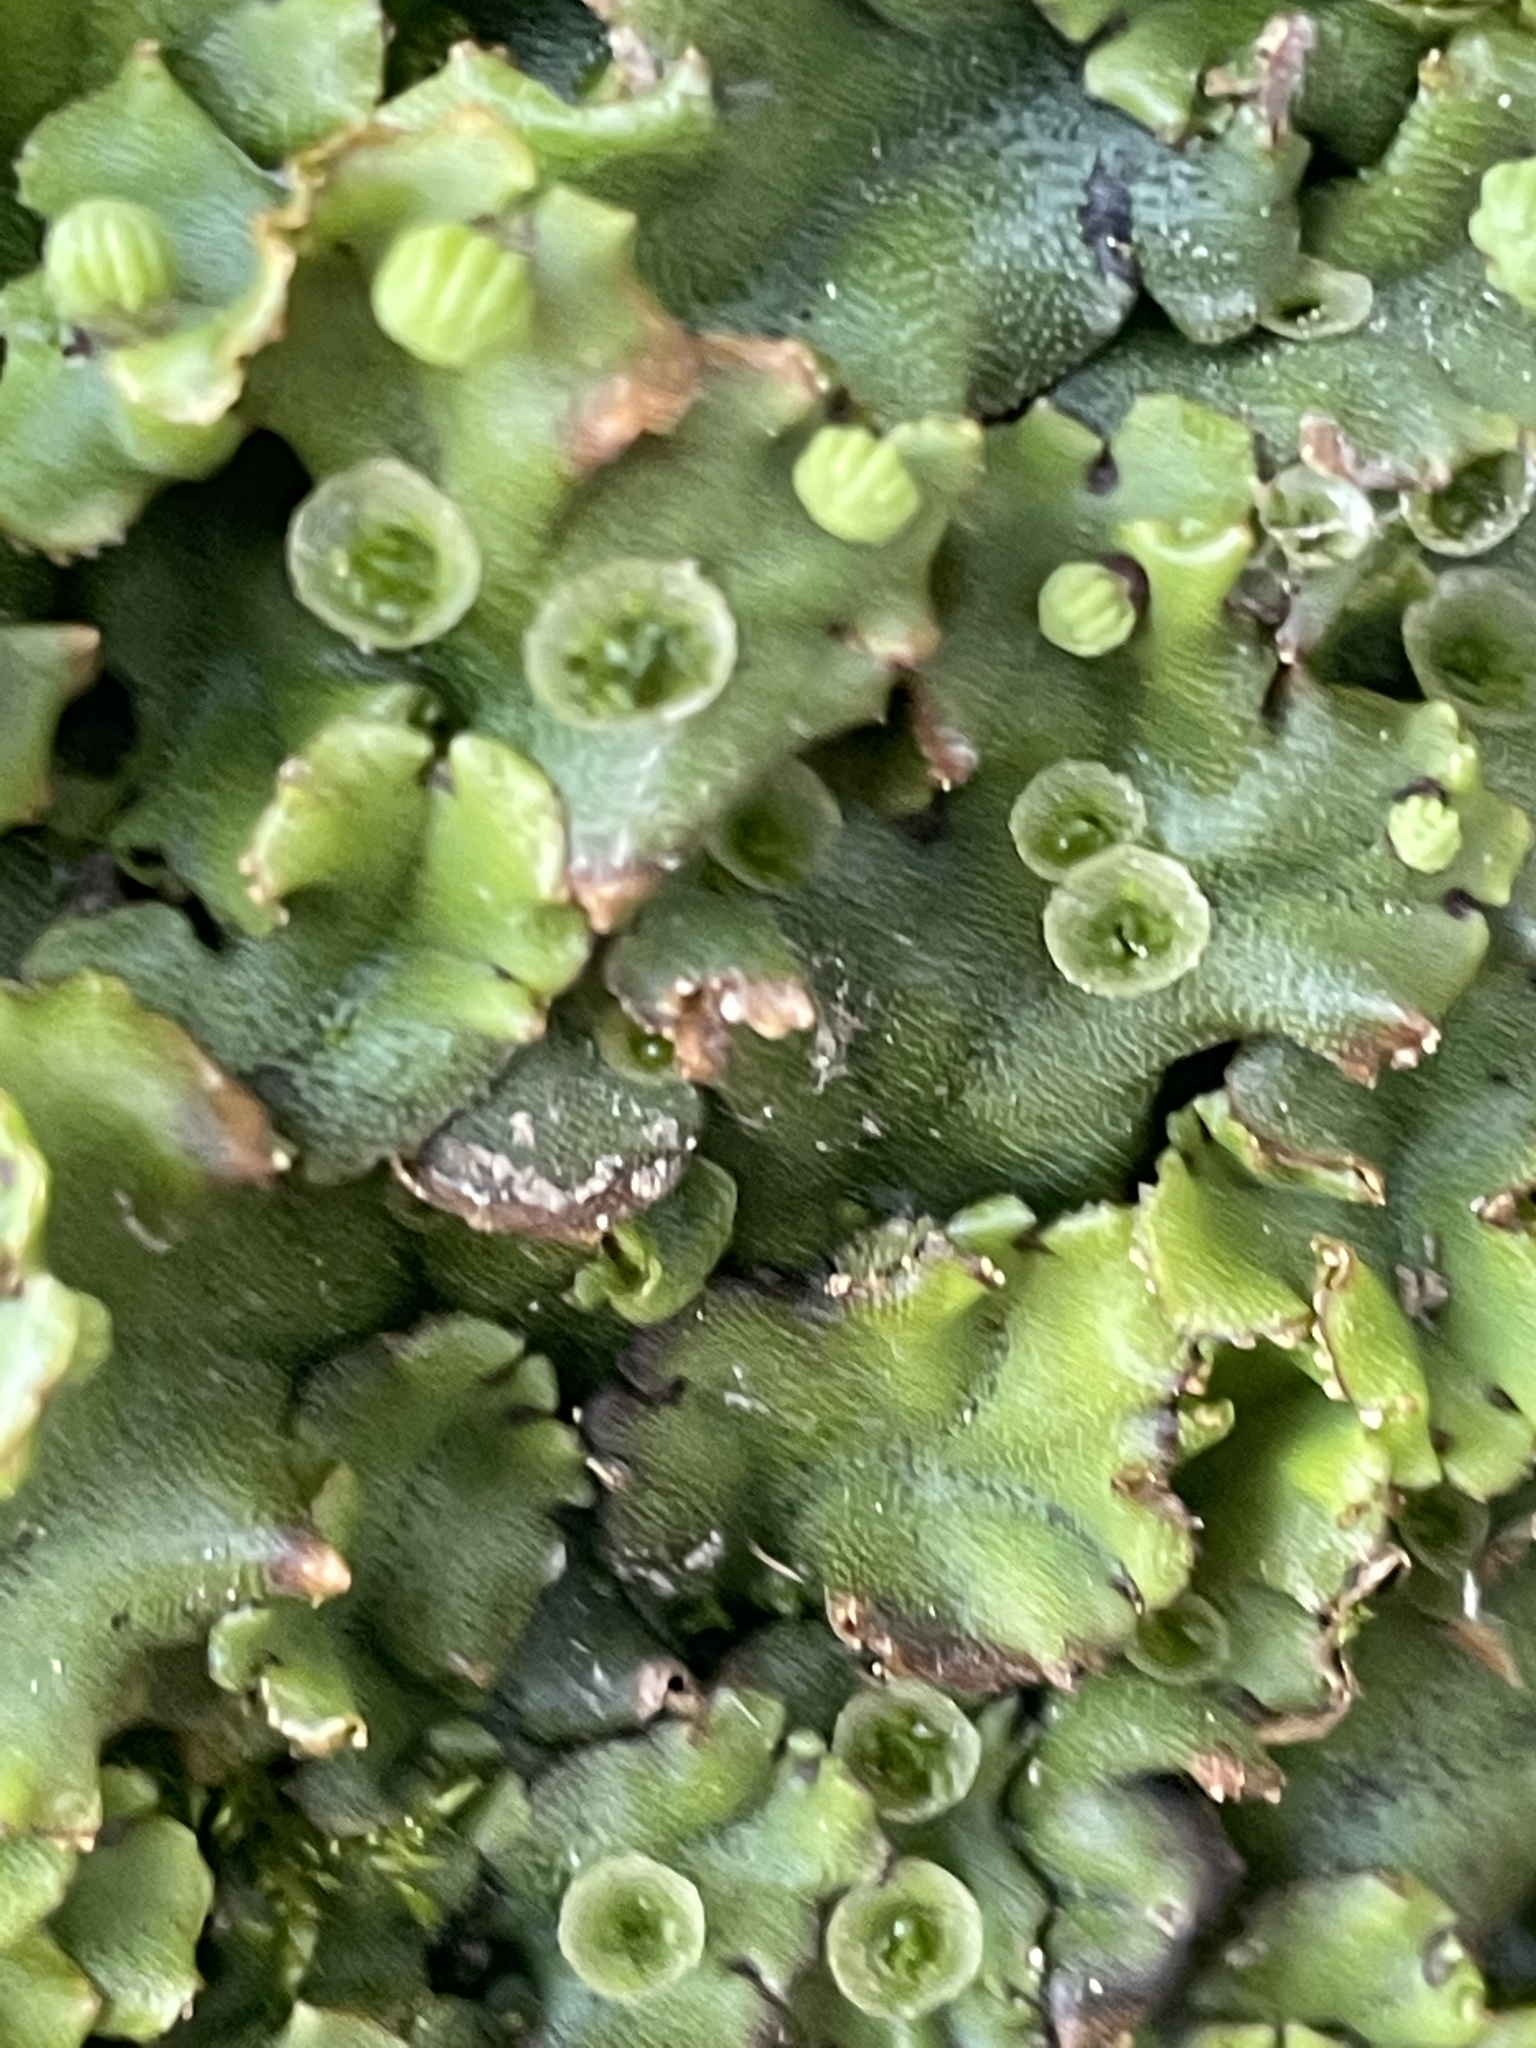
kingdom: Plantae
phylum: Marchantiophyta
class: Marchantiopsida
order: Marchantiales
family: Marchantiaceae
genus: Marchantia
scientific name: Marchantia polymorpha
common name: Common liverwort
